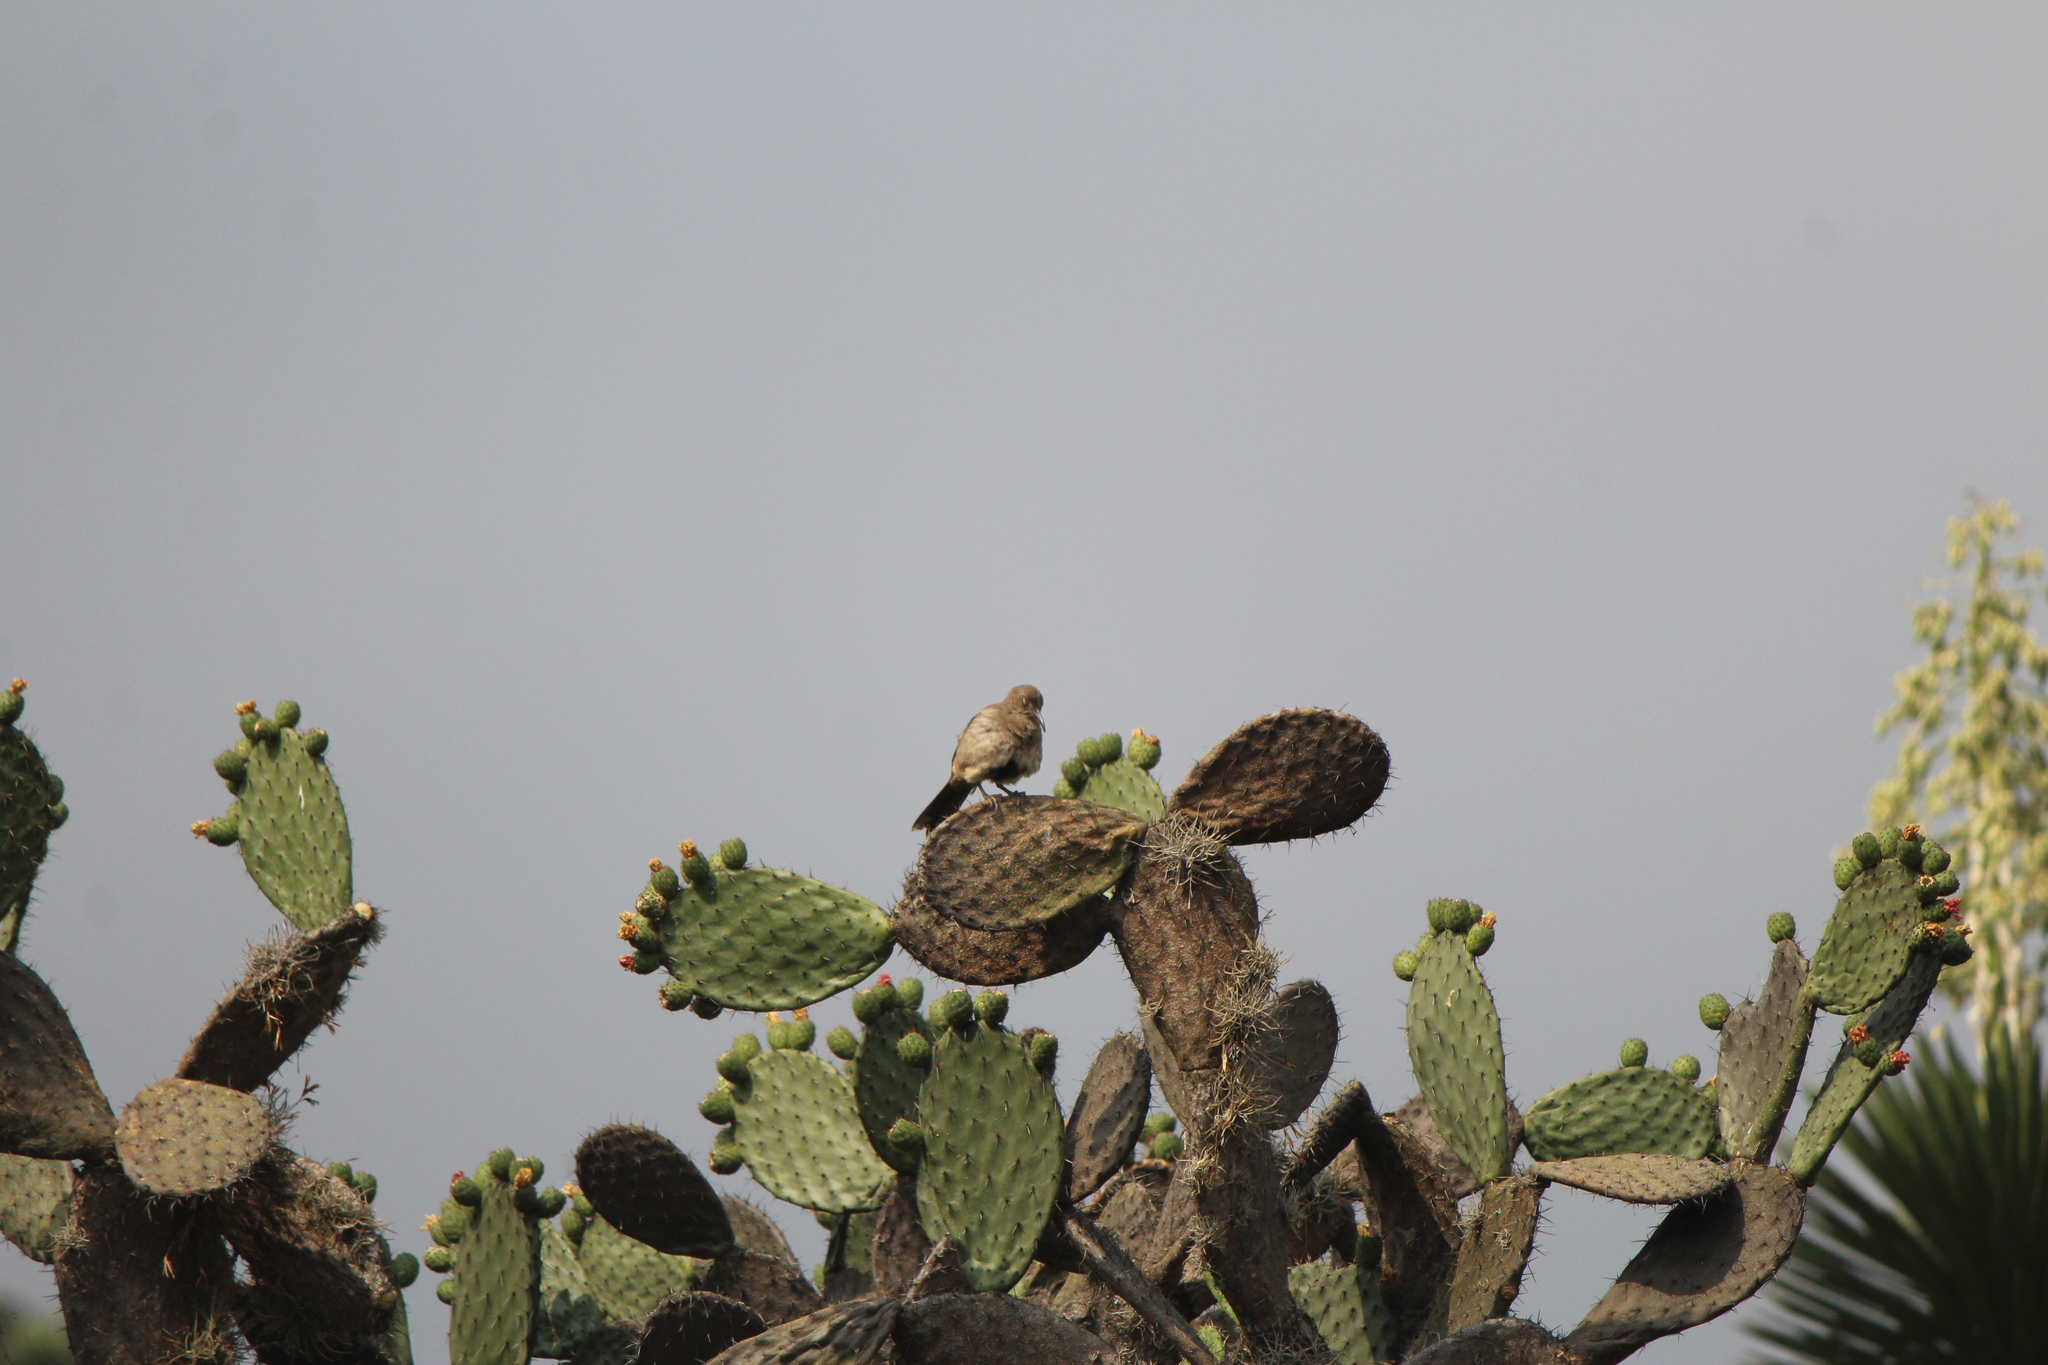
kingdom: Animalia
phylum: Chordata
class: Aves
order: Passeriformes
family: Mimidae
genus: Toxostoma
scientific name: Toxostoma curvirostre
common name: Curve-billed thrasher
